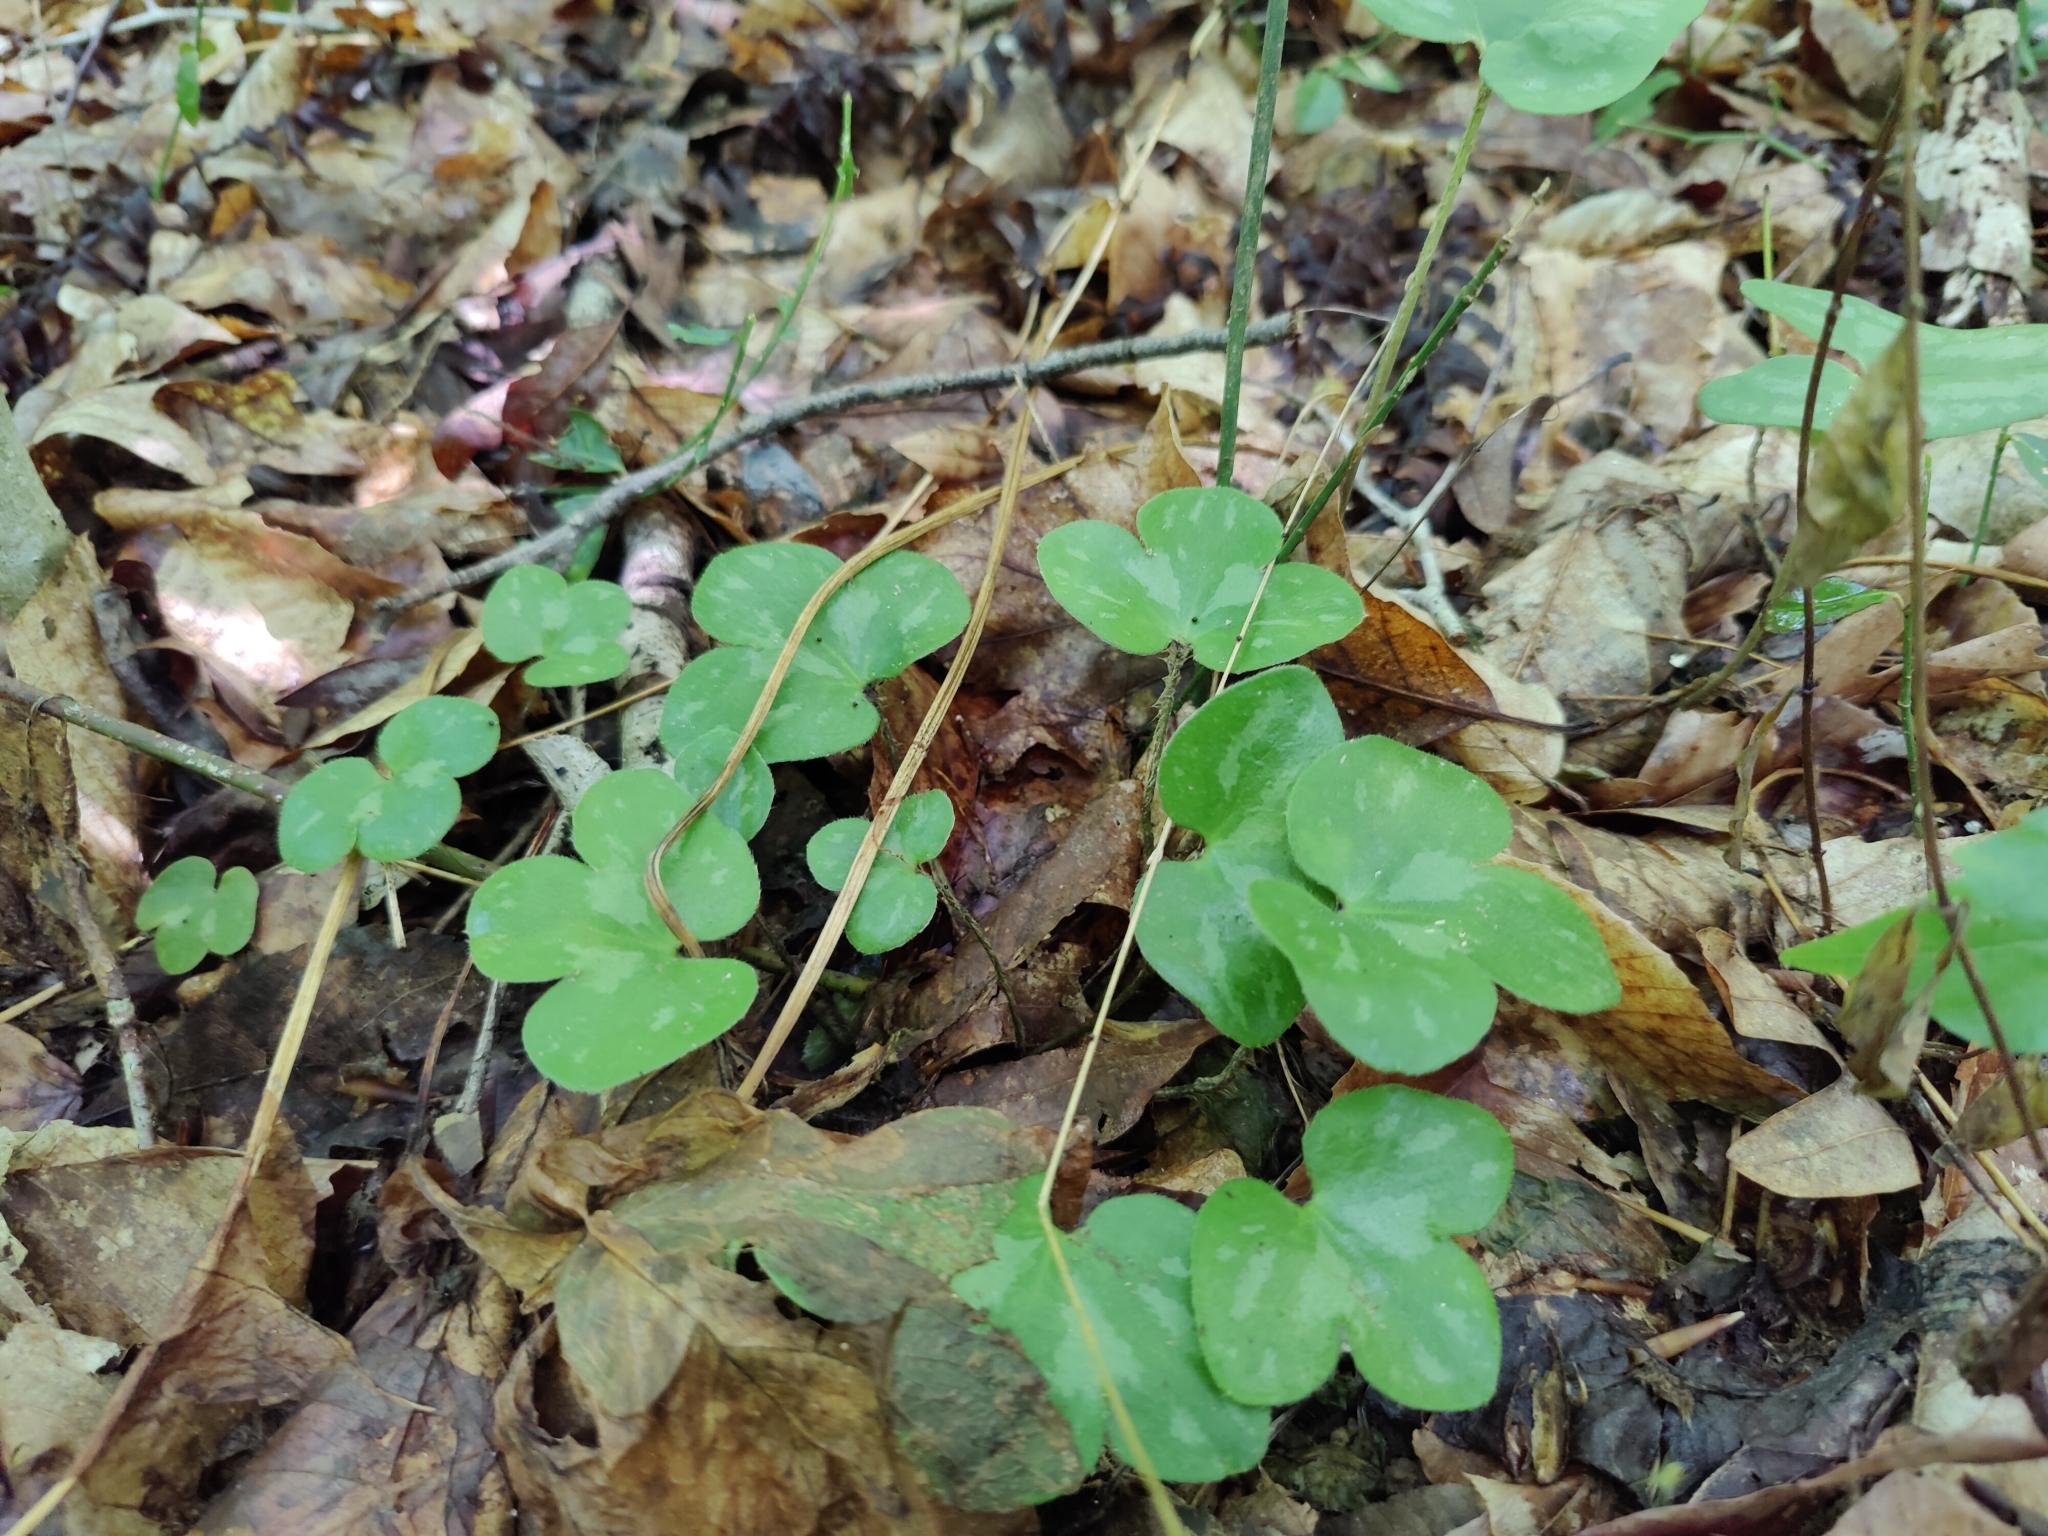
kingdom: Plantae
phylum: Tracheophyta
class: Magnoliopsida
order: Piperales
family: Aristolochiaceae
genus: Hexastylis
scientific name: Hexastylis arifolia
